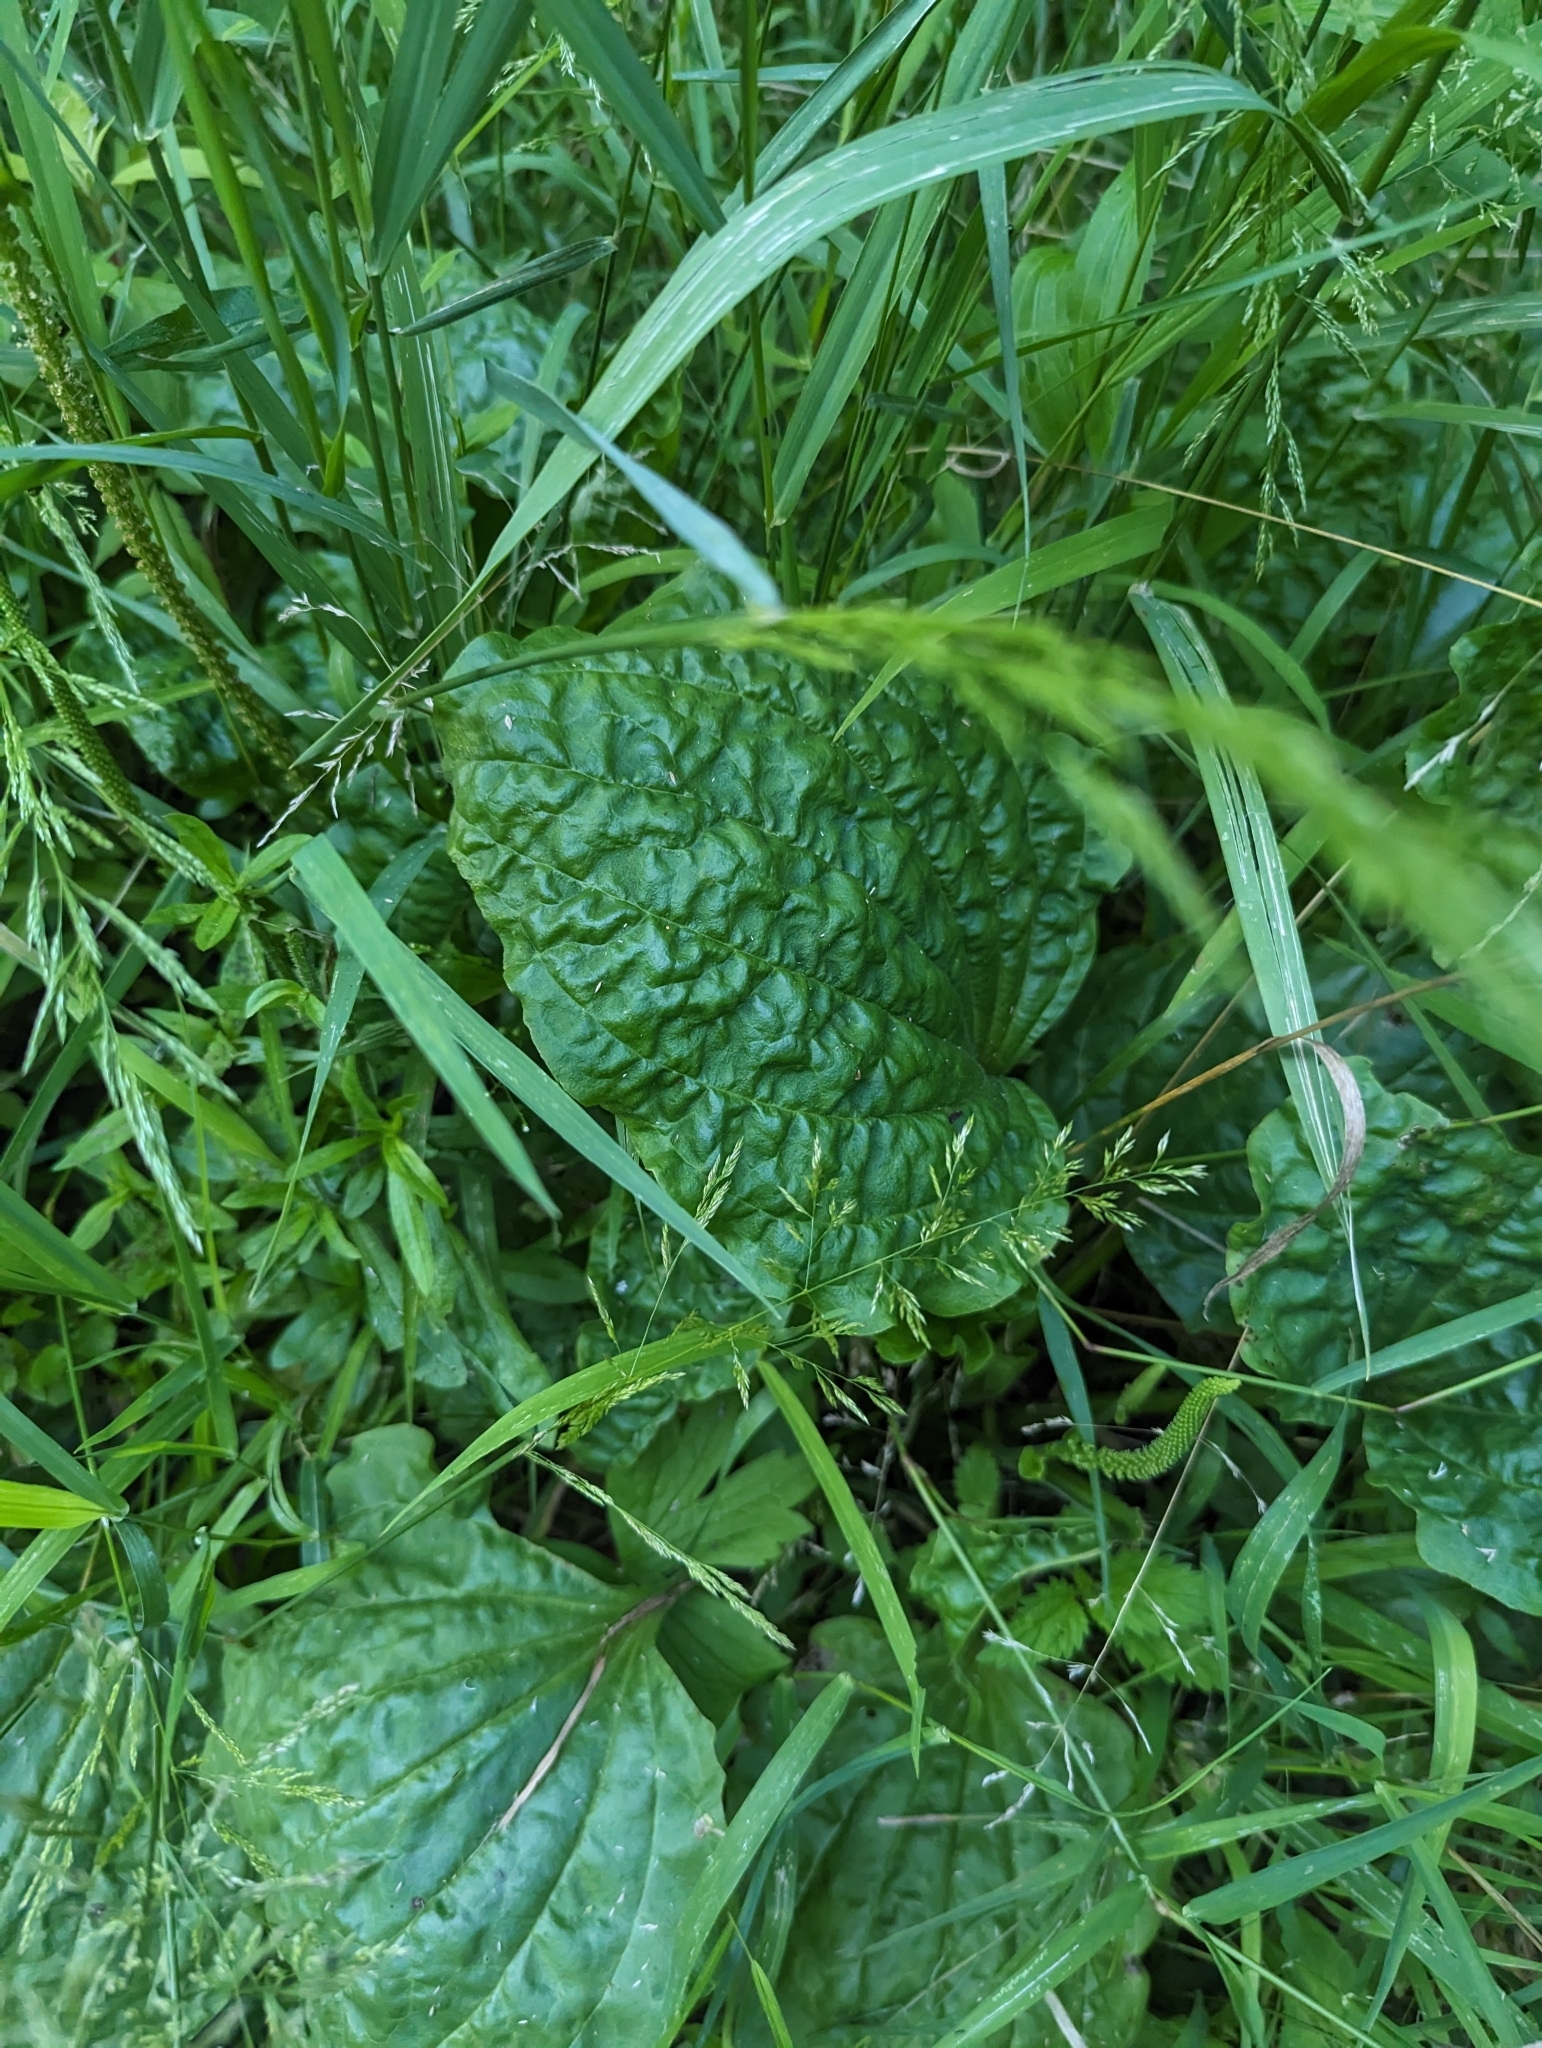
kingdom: Plantae
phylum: Tracheophyta
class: Magnoliopsida
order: Lamiales
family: Plantaginaceae
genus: Plantago
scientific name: Plantago rugelii
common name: American plantain
